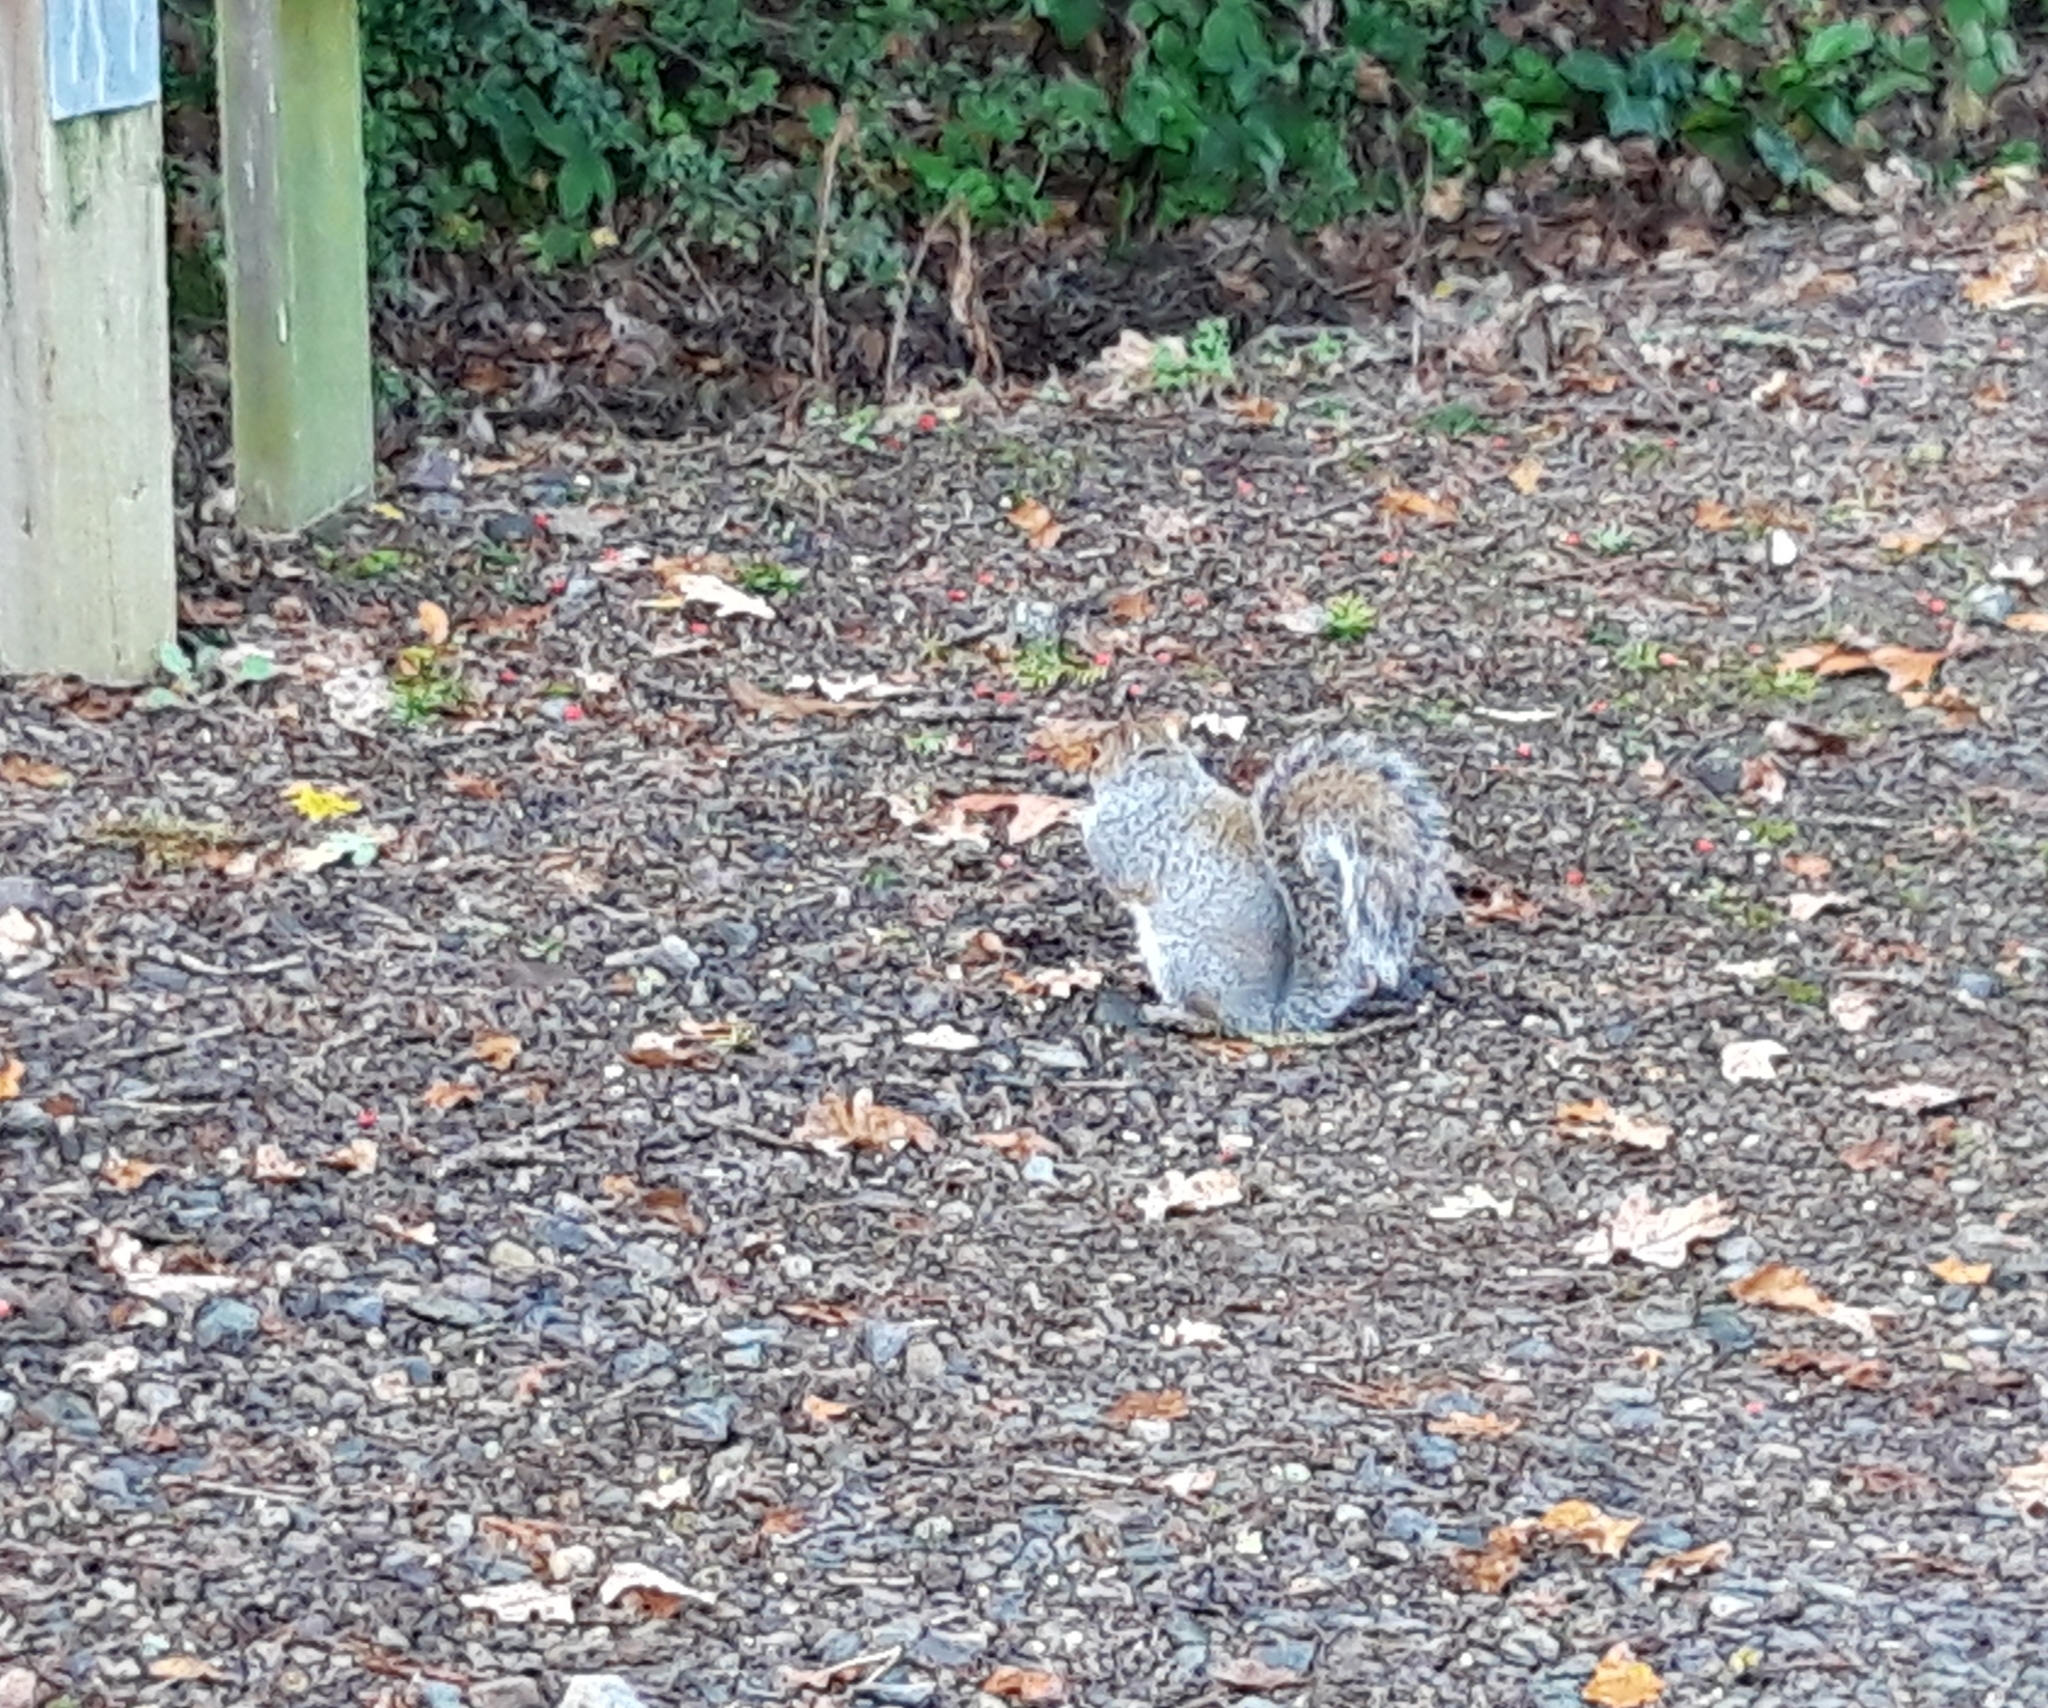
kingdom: Animalia
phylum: Chordata
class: Mammalia
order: Rodentia
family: Sciuridae
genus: Sciurus
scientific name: Sciurus carolinensis
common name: Eastern gray squirrel
